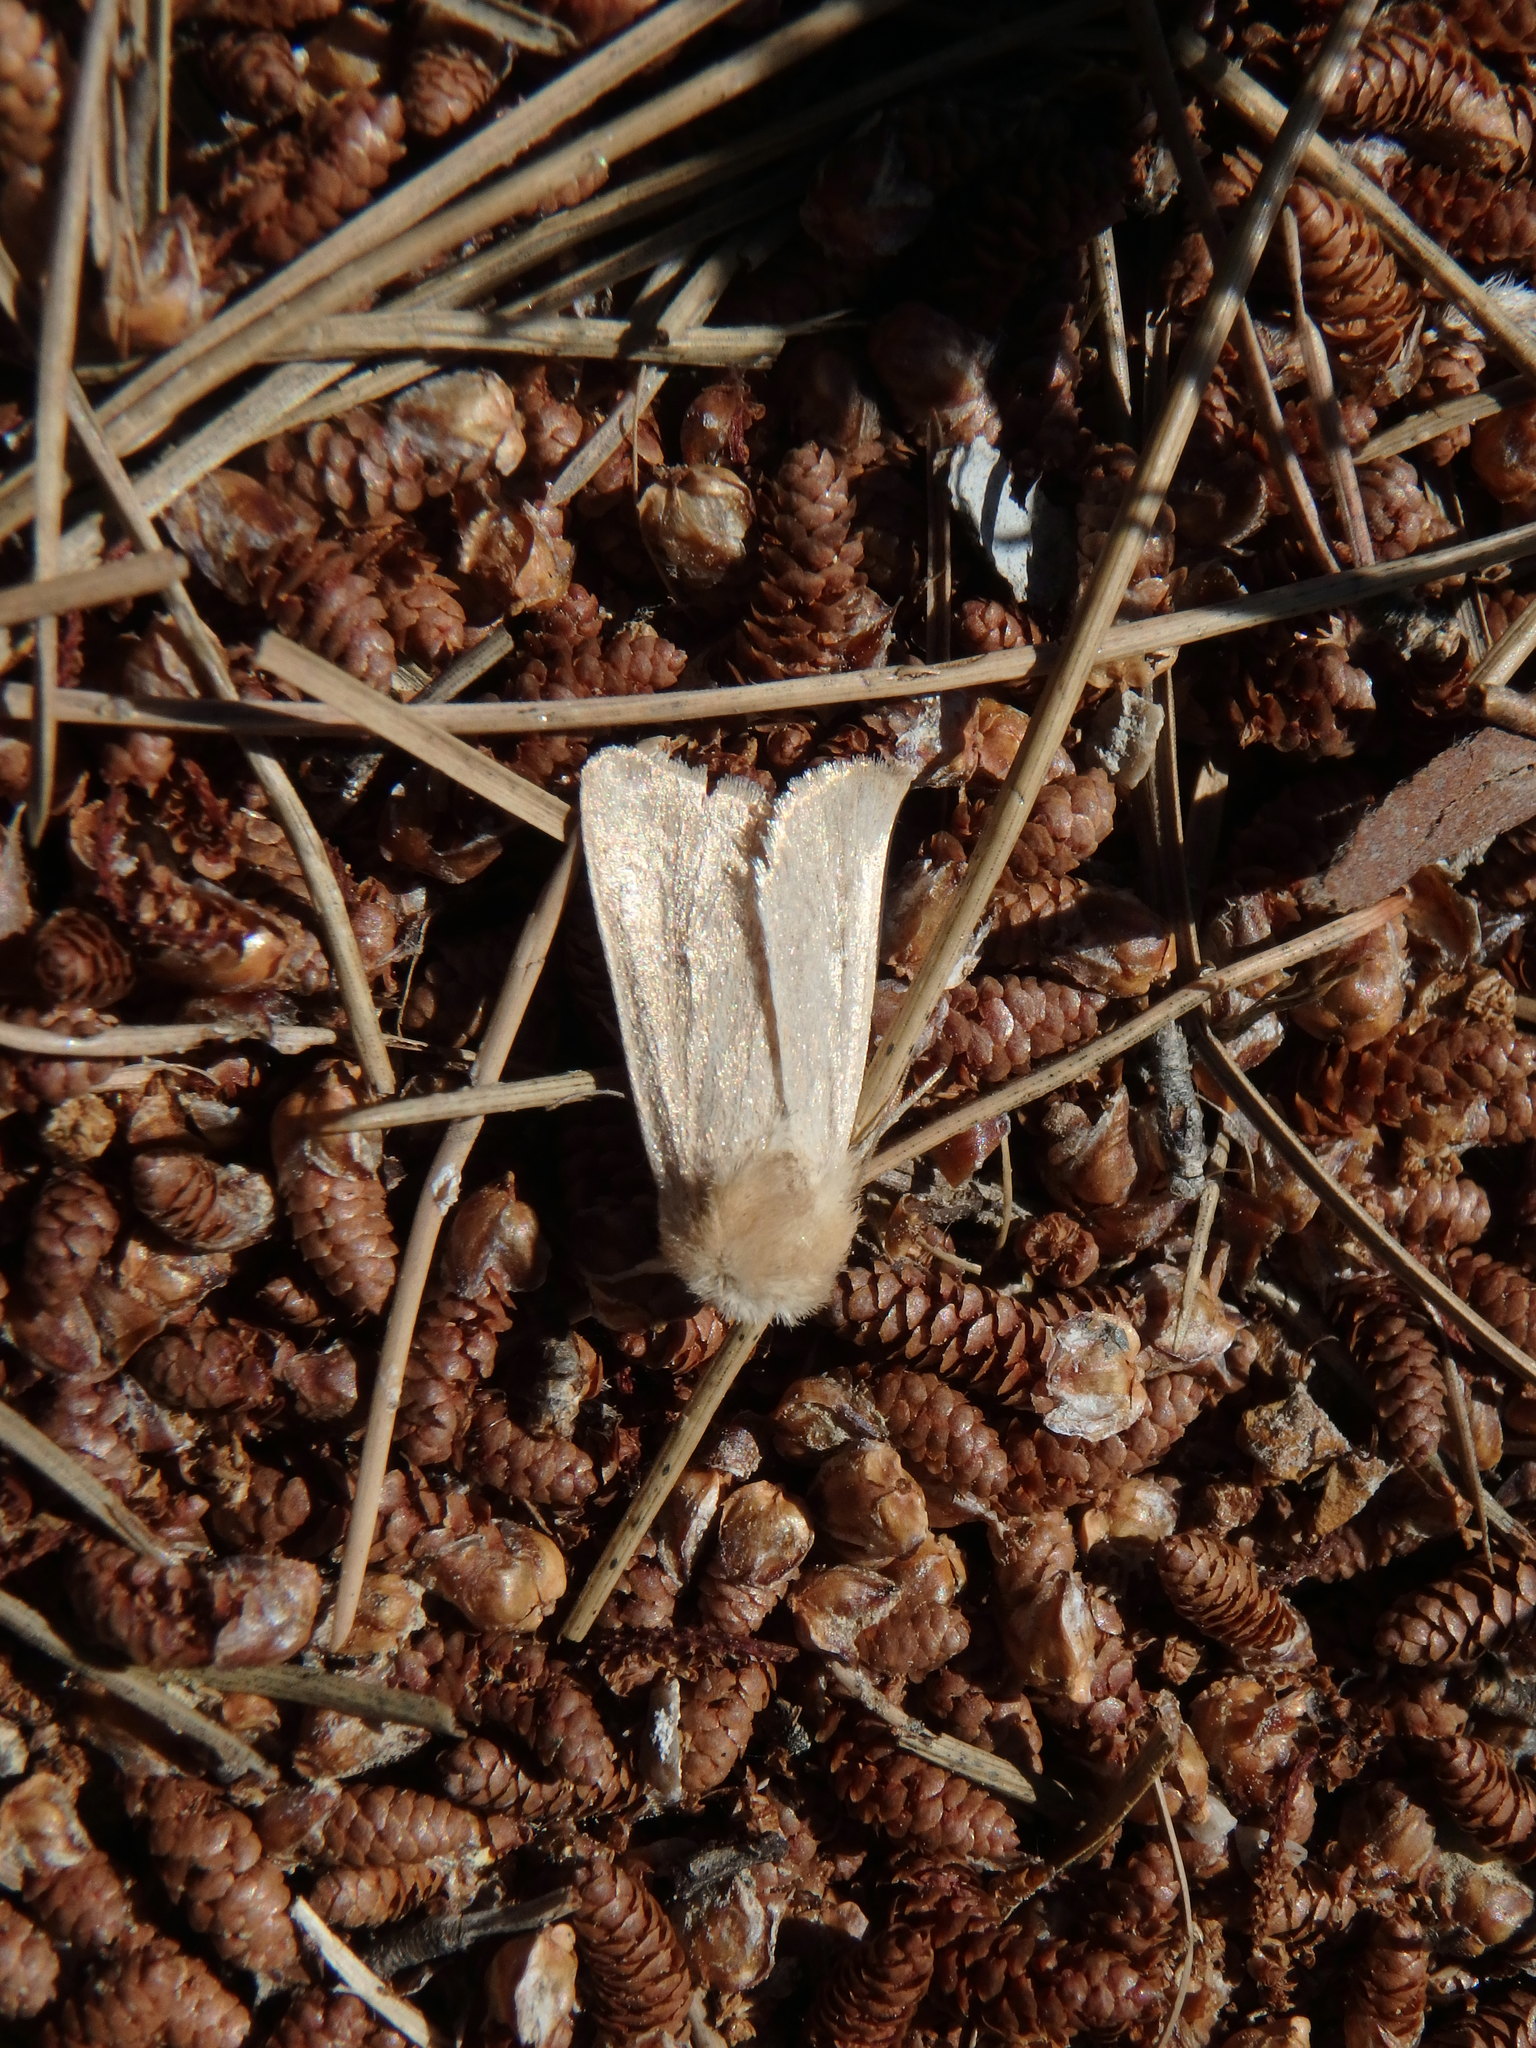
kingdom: Animalia
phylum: Arthropoda
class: Insecta
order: Lepidoptera
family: Noctuidae
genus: Mythimna
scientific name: Mythimna sicula
